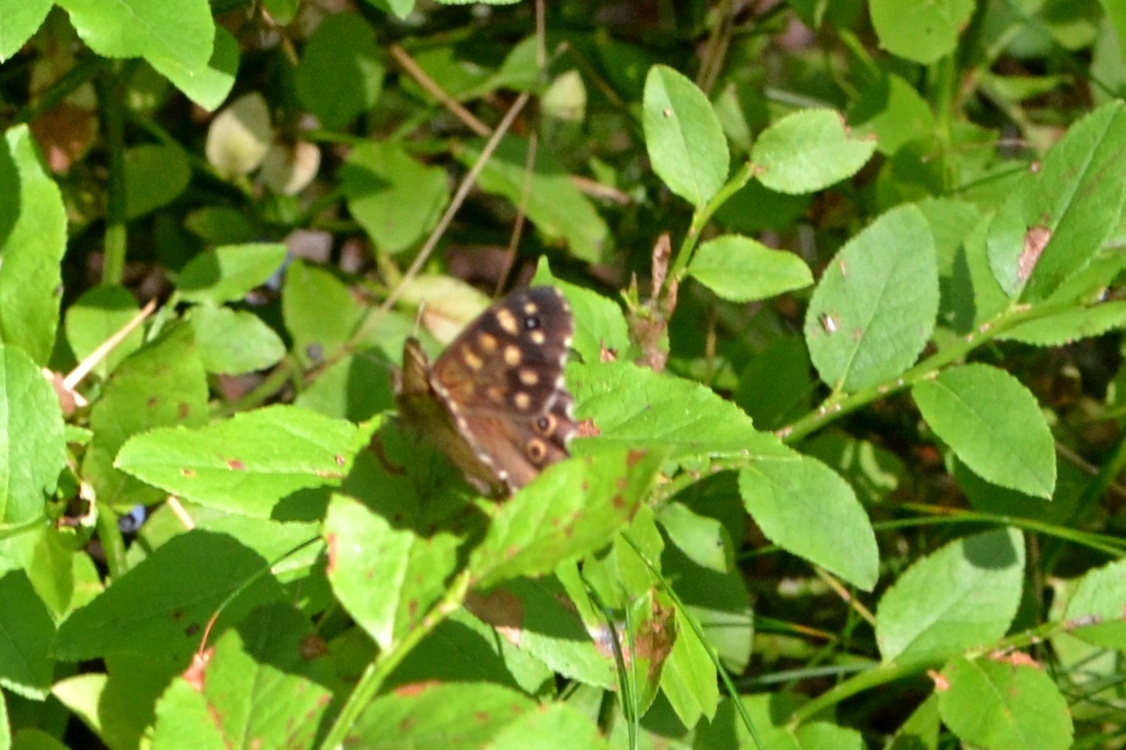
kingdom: Animalia
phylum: Arthropoda
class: Insecta
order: Lepidoptera
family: Nymphalidae
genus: Pararge
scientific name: Pararge aegeria
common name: Speckled wood
